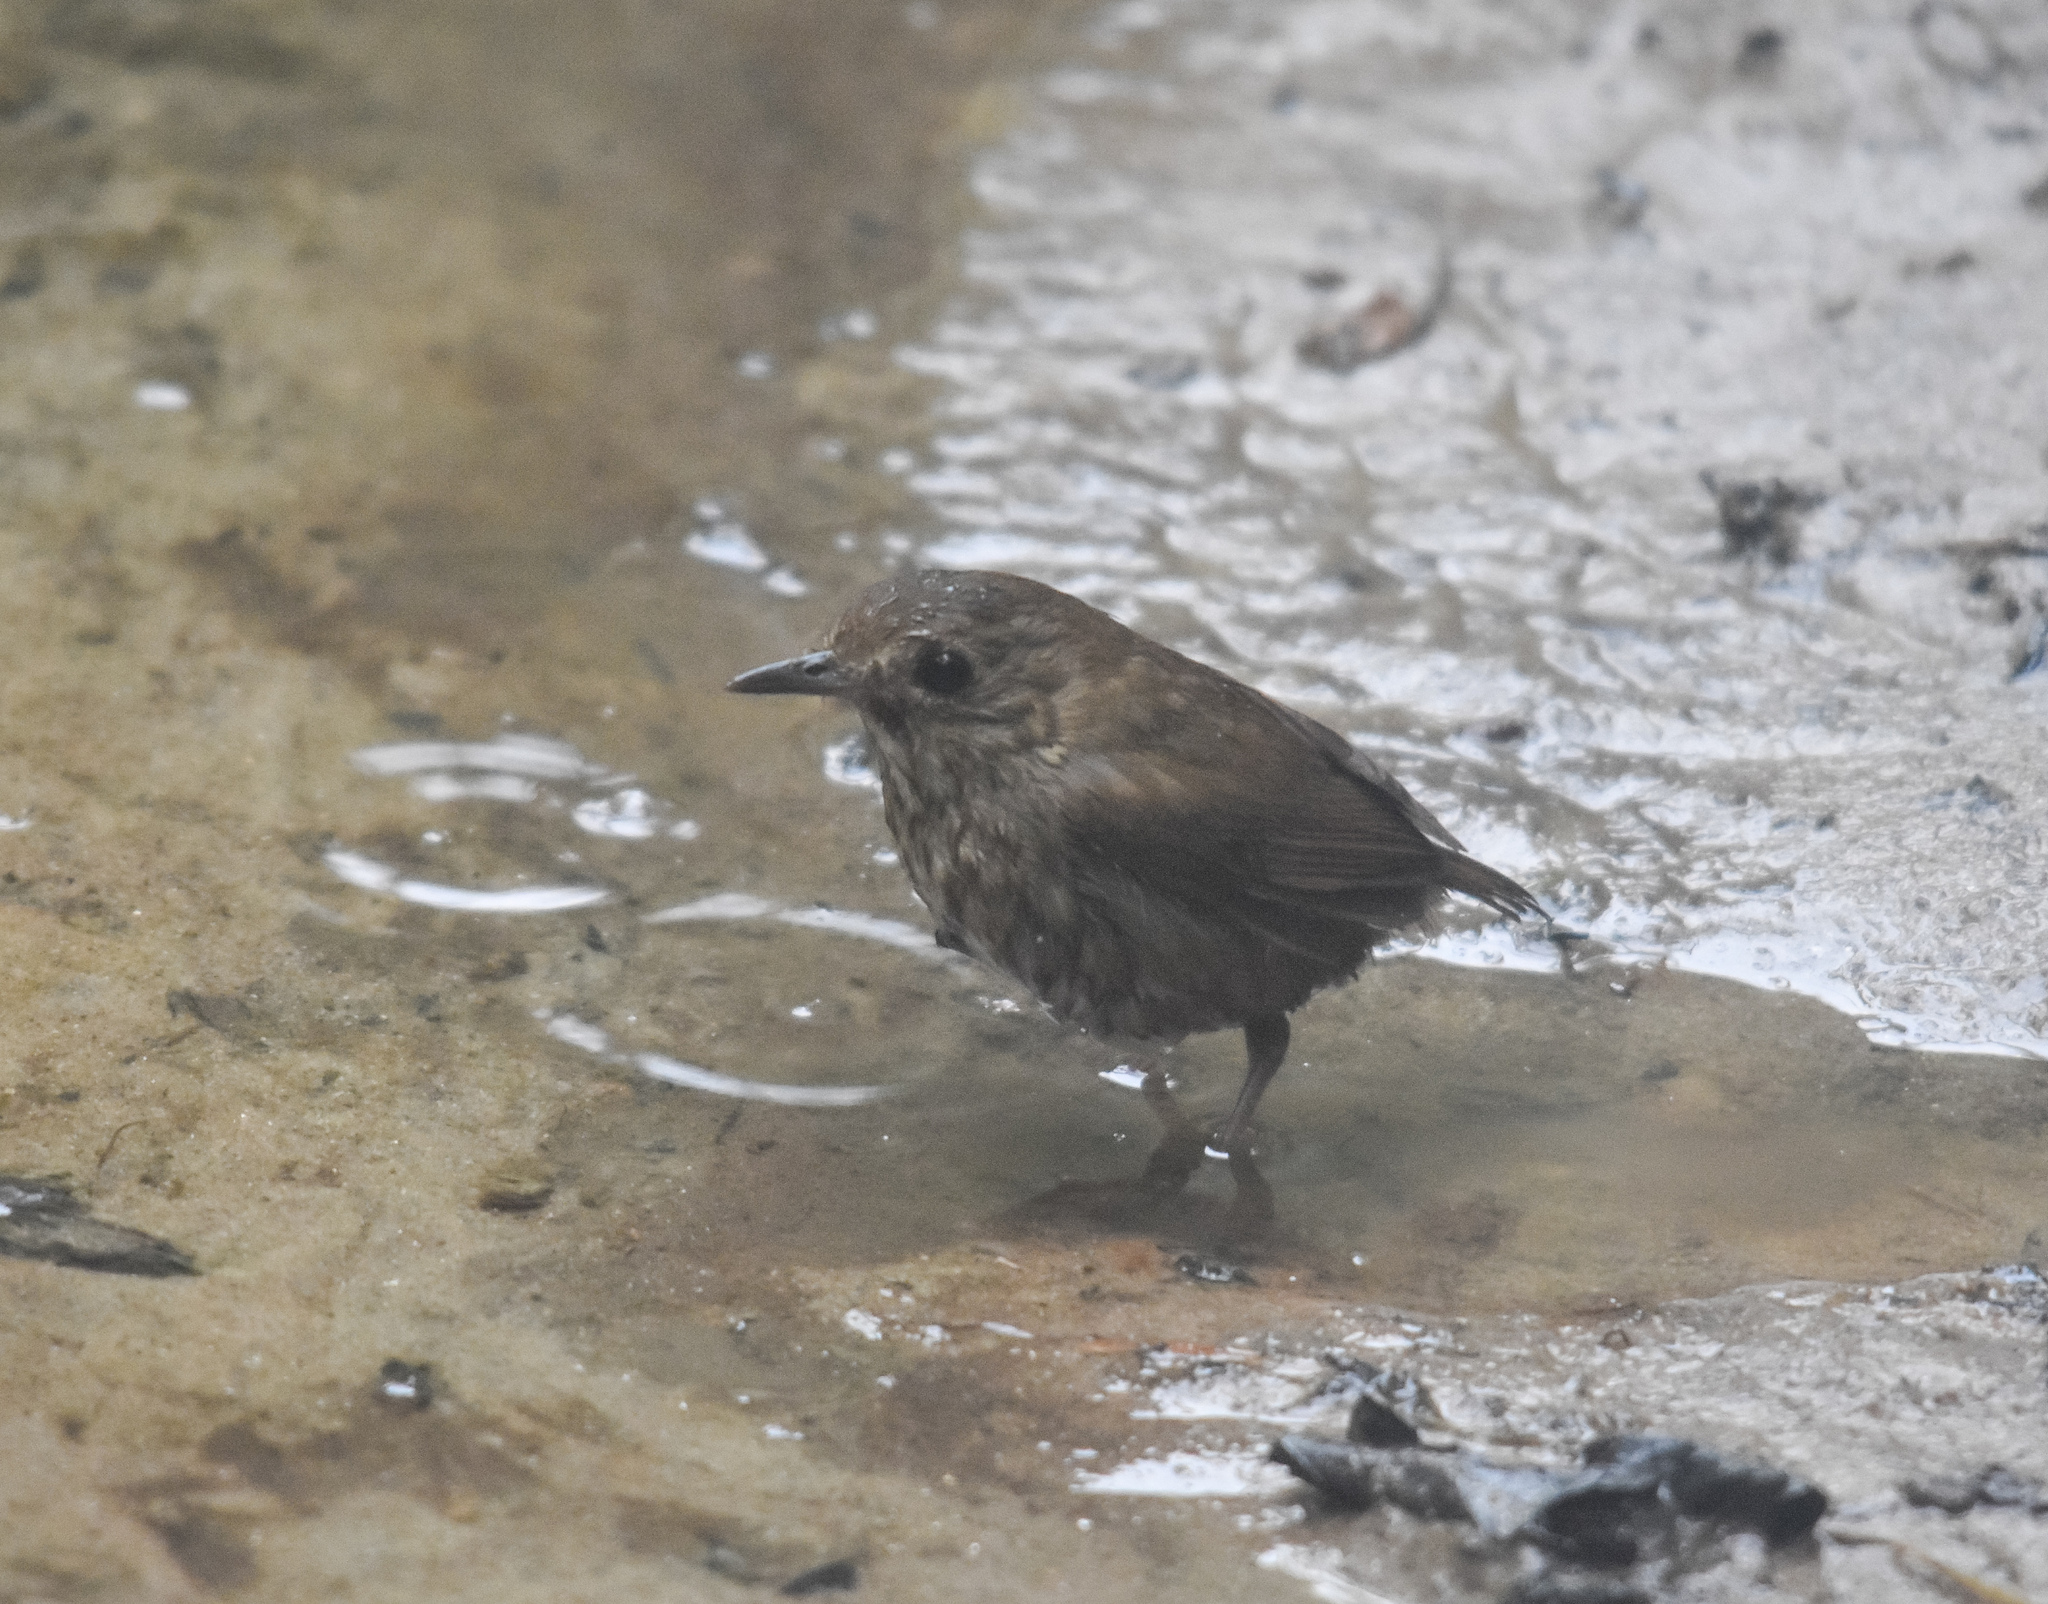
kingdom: Animalia
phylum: Chordata
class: Aves
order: Passeriformes
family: Muscicapidae
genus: Brachypteryx
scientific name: Brachypteryx leucophris
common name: Lesser shortwing
